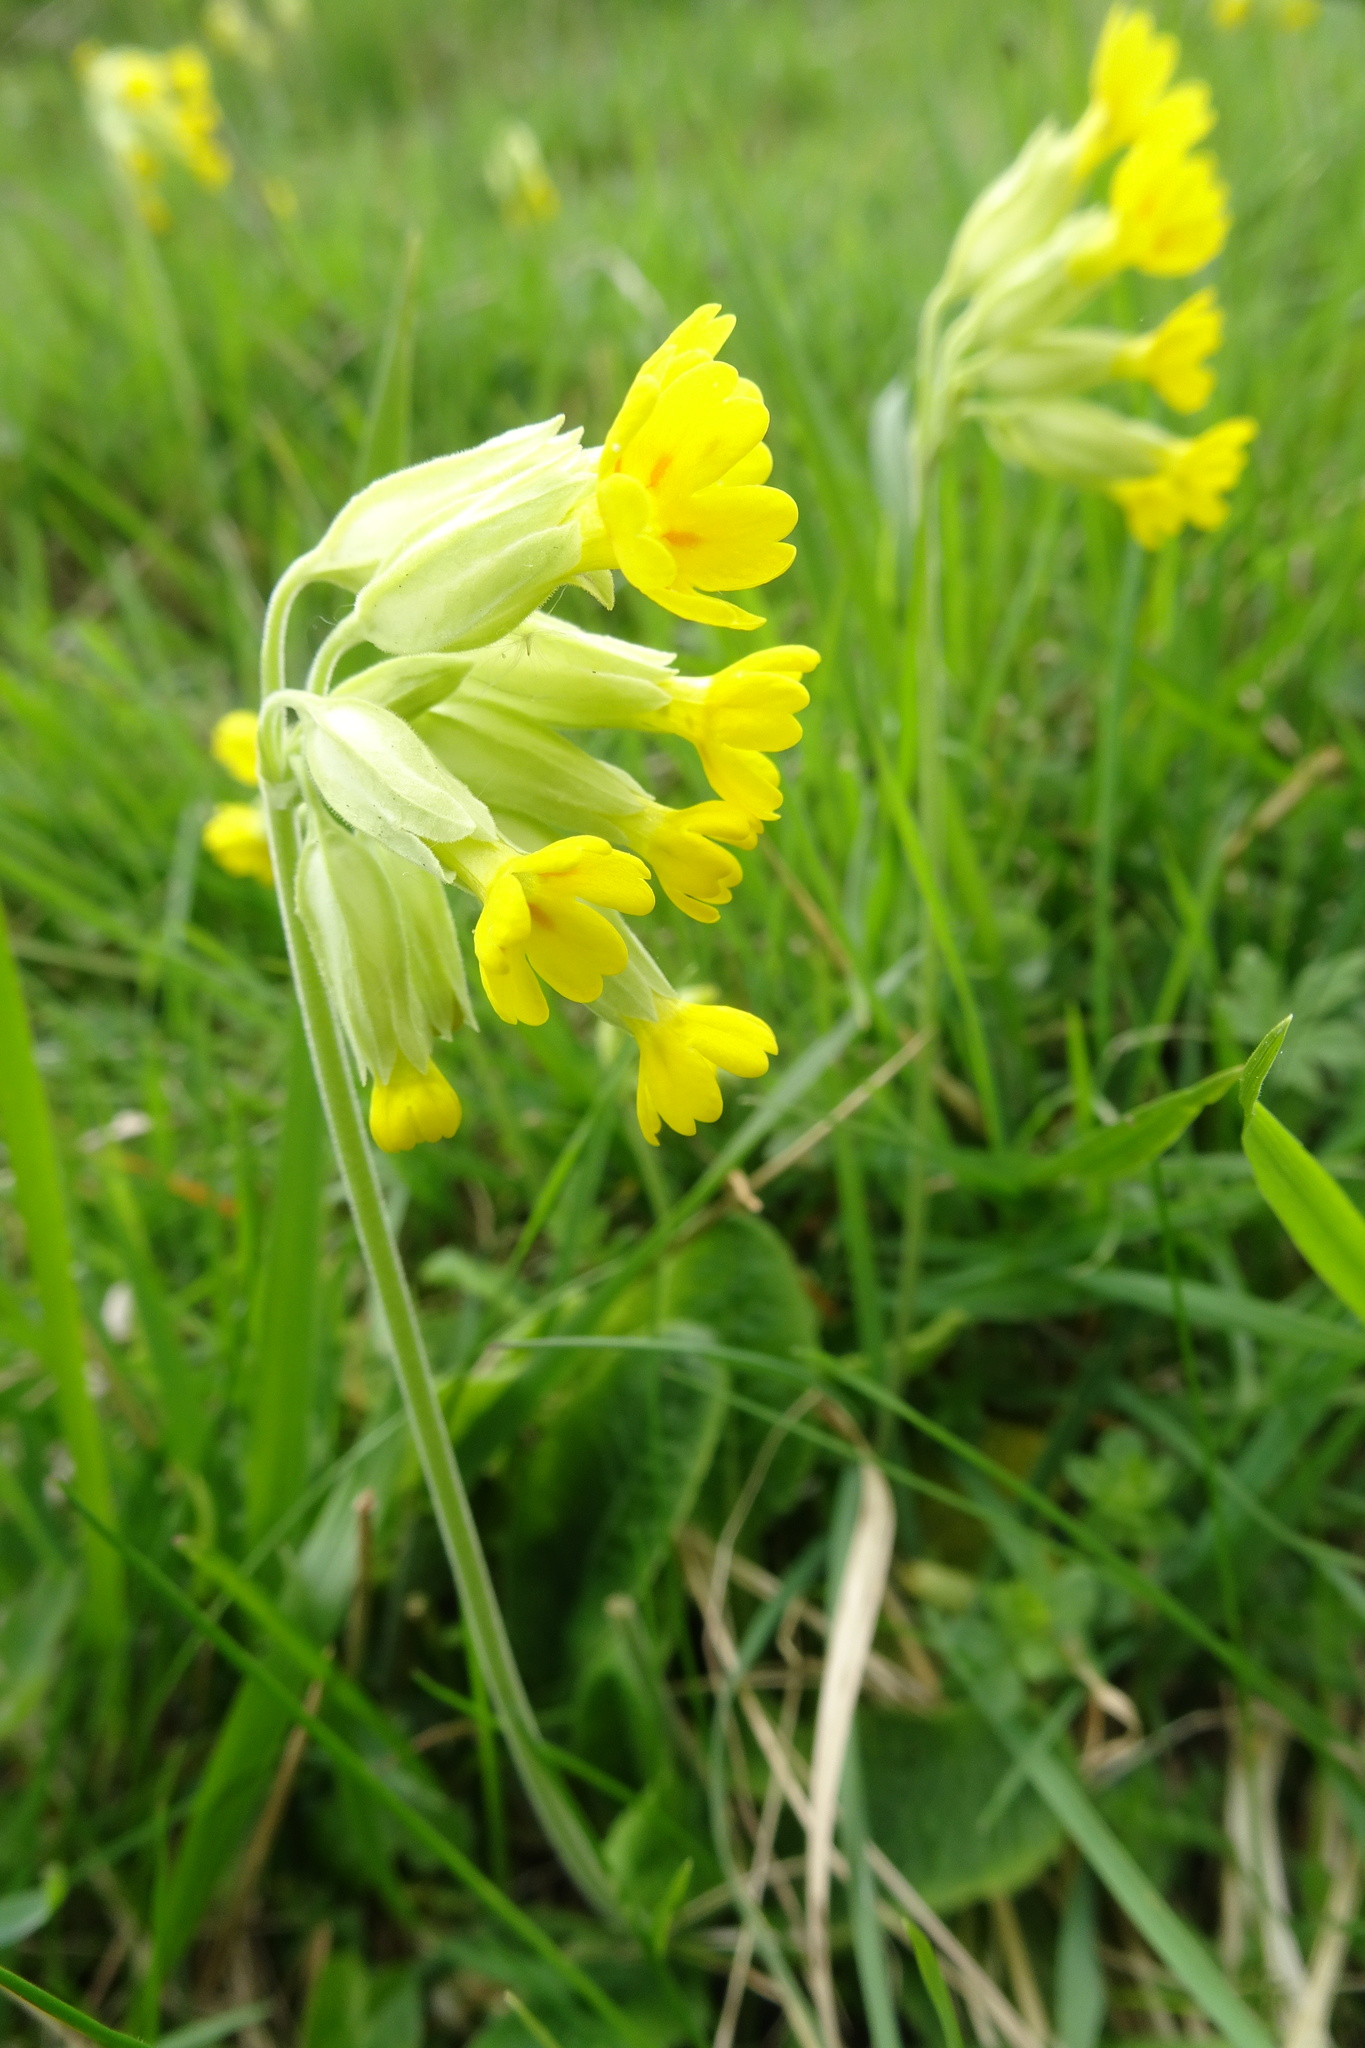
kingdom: Plantae
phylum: Tracheophyta
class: Magnoliopsida
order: Ericales
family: Primulaceae
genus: Primula
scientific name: Primula veris
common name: Cowslip
